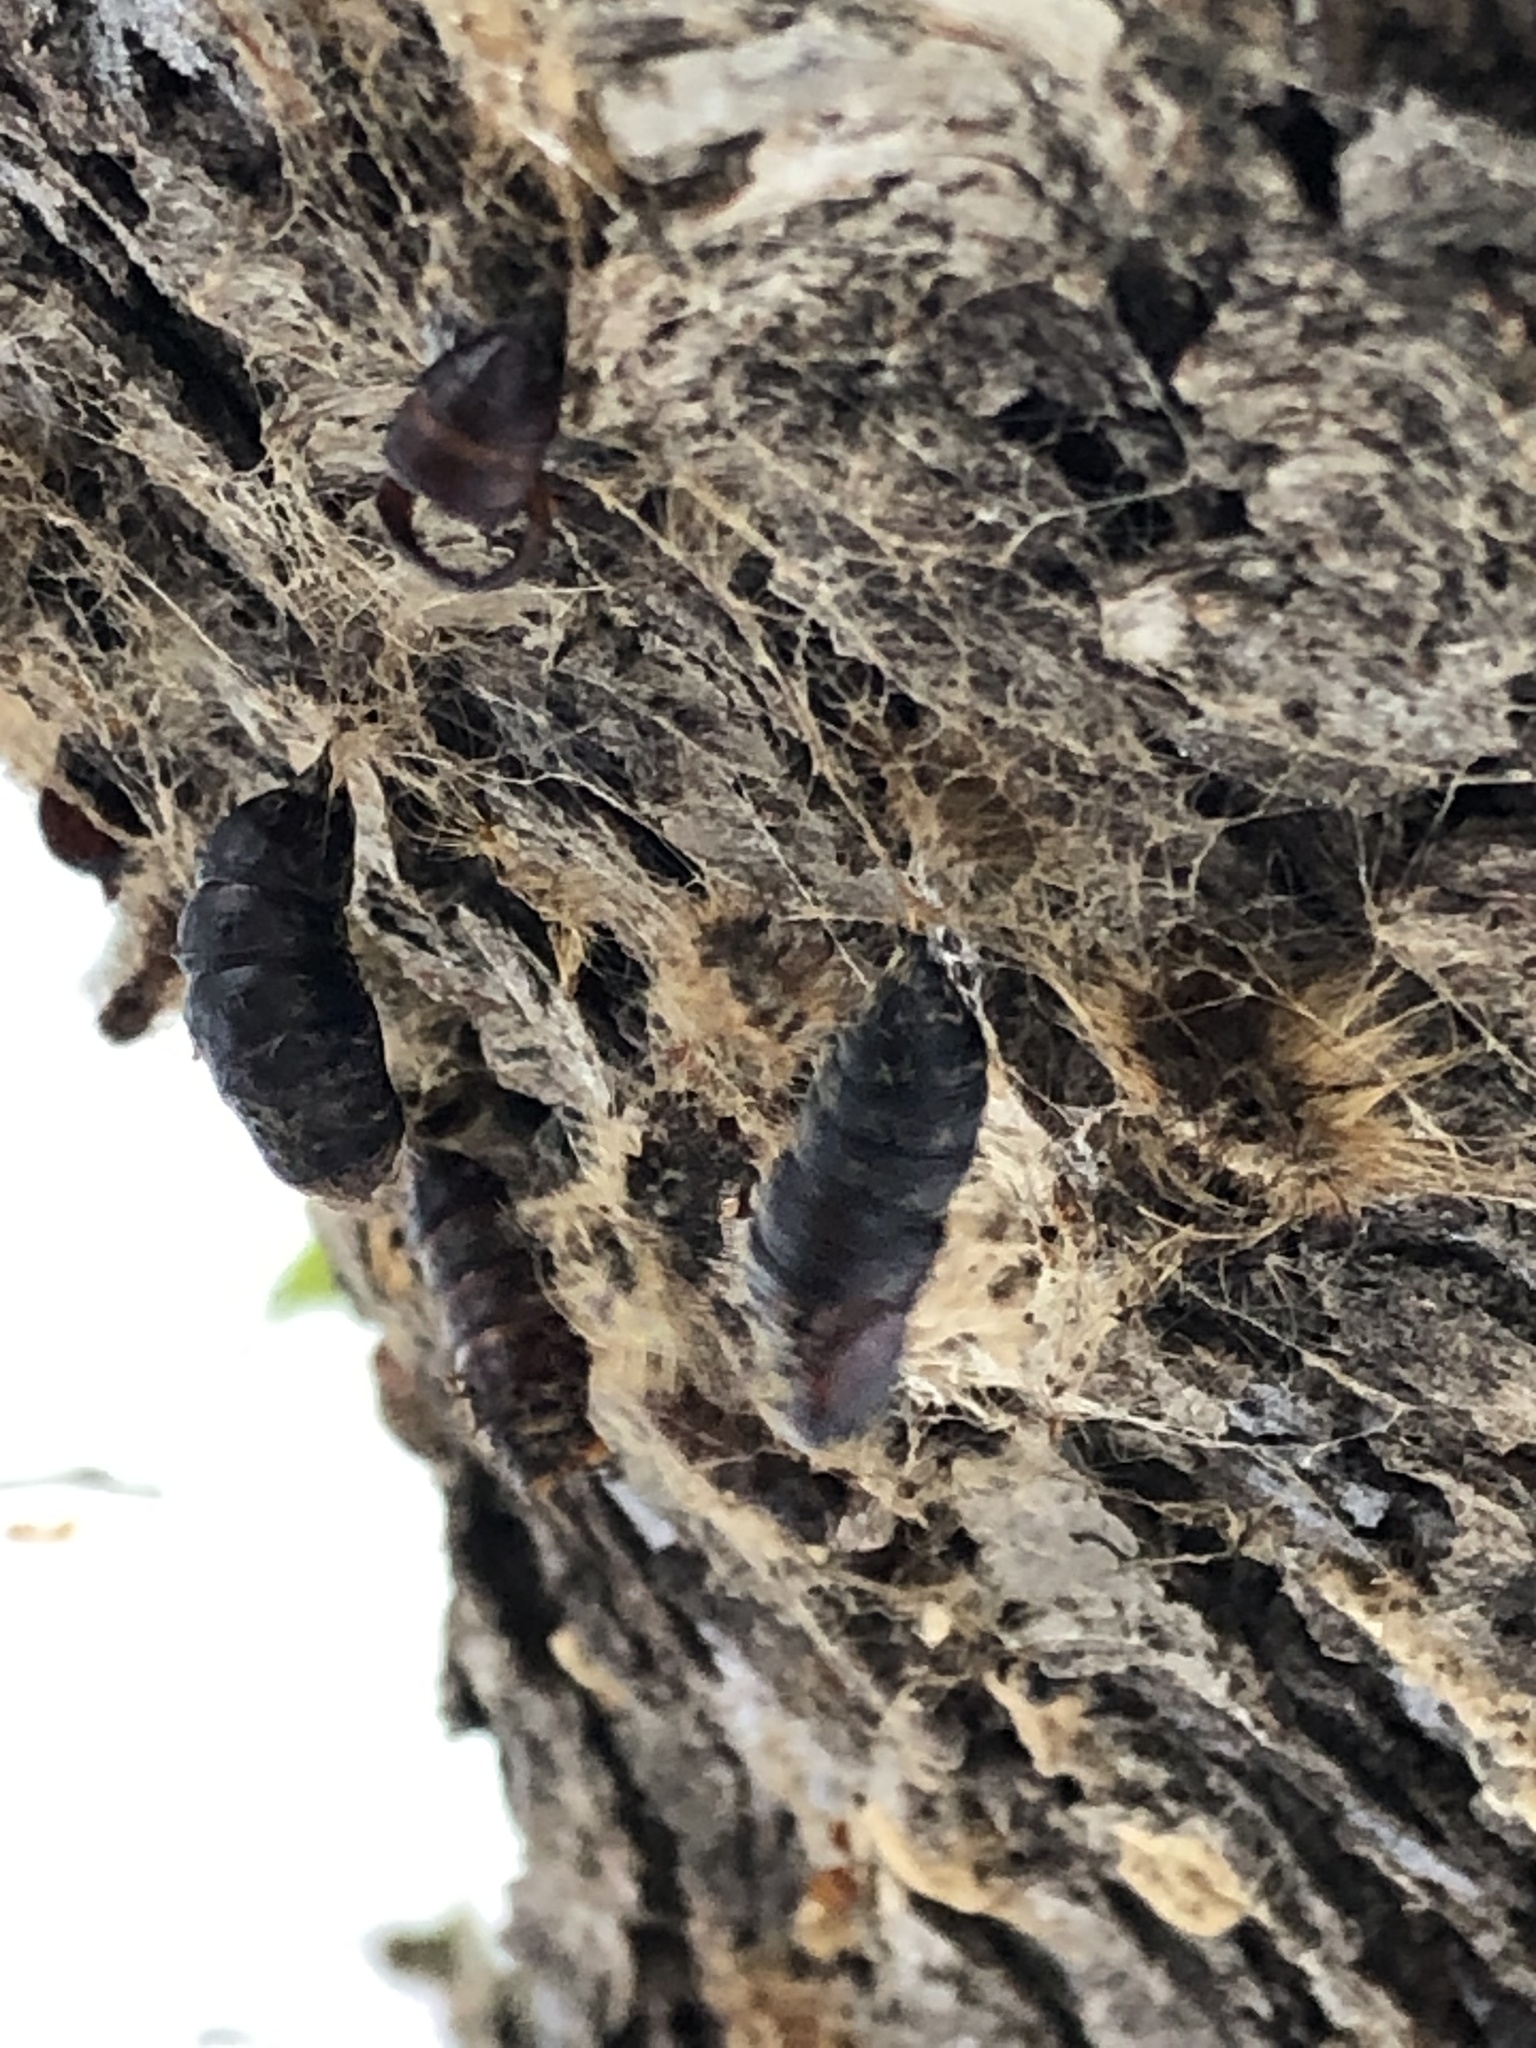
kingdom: Animalia
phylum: Arthropoda
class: Insecta
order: Lepidoptera
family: Erebidae
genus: Lymantria
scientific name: Lymantria dispar
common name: Gypsy moth
